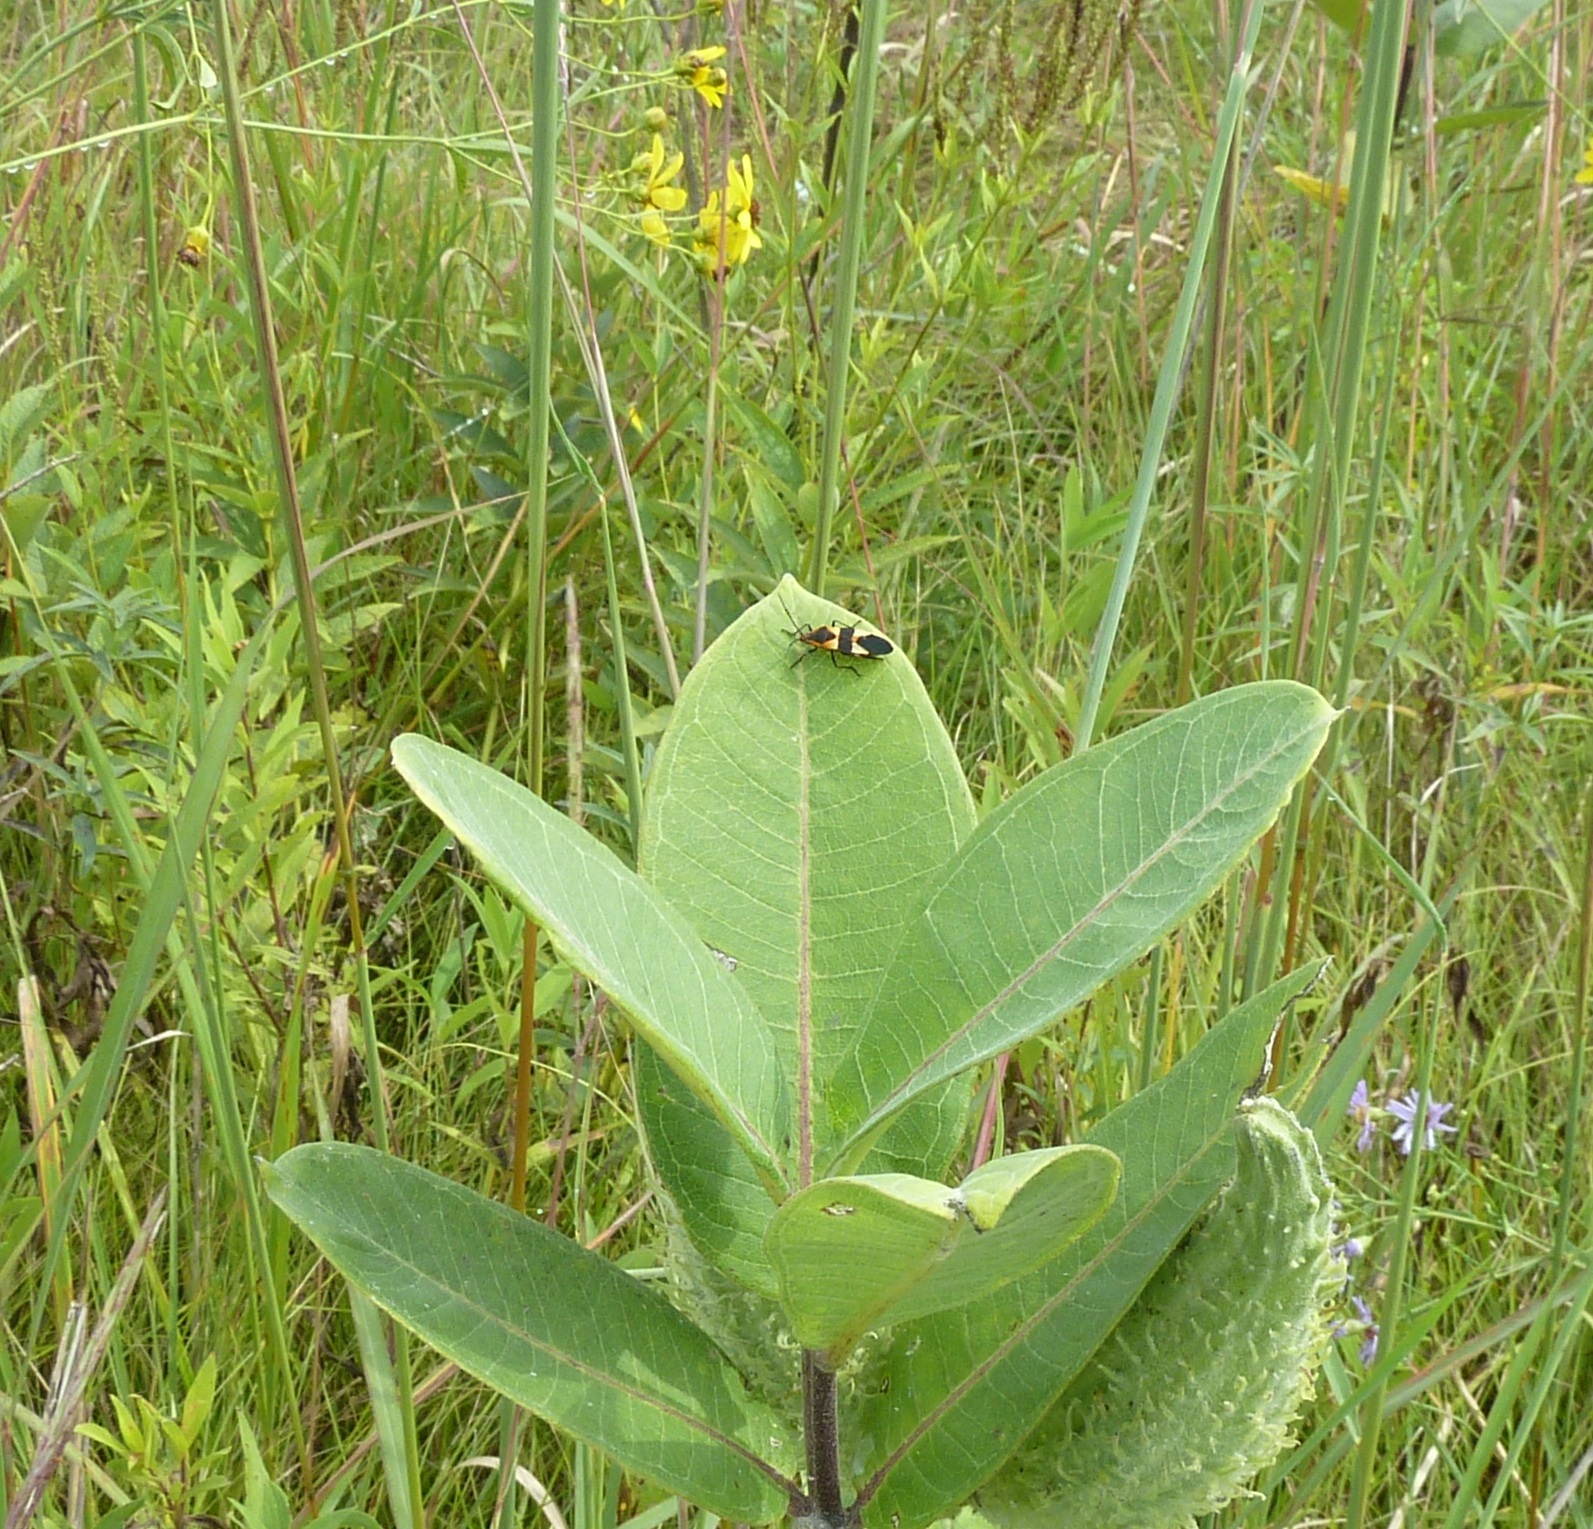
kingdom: Animalia
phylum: Arthropoda
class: Insecta
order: Hemiptera
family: Lygaeidae
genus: Oncopeltus
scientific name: Oncopeltus fasciatus
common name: Large milkweed bug
